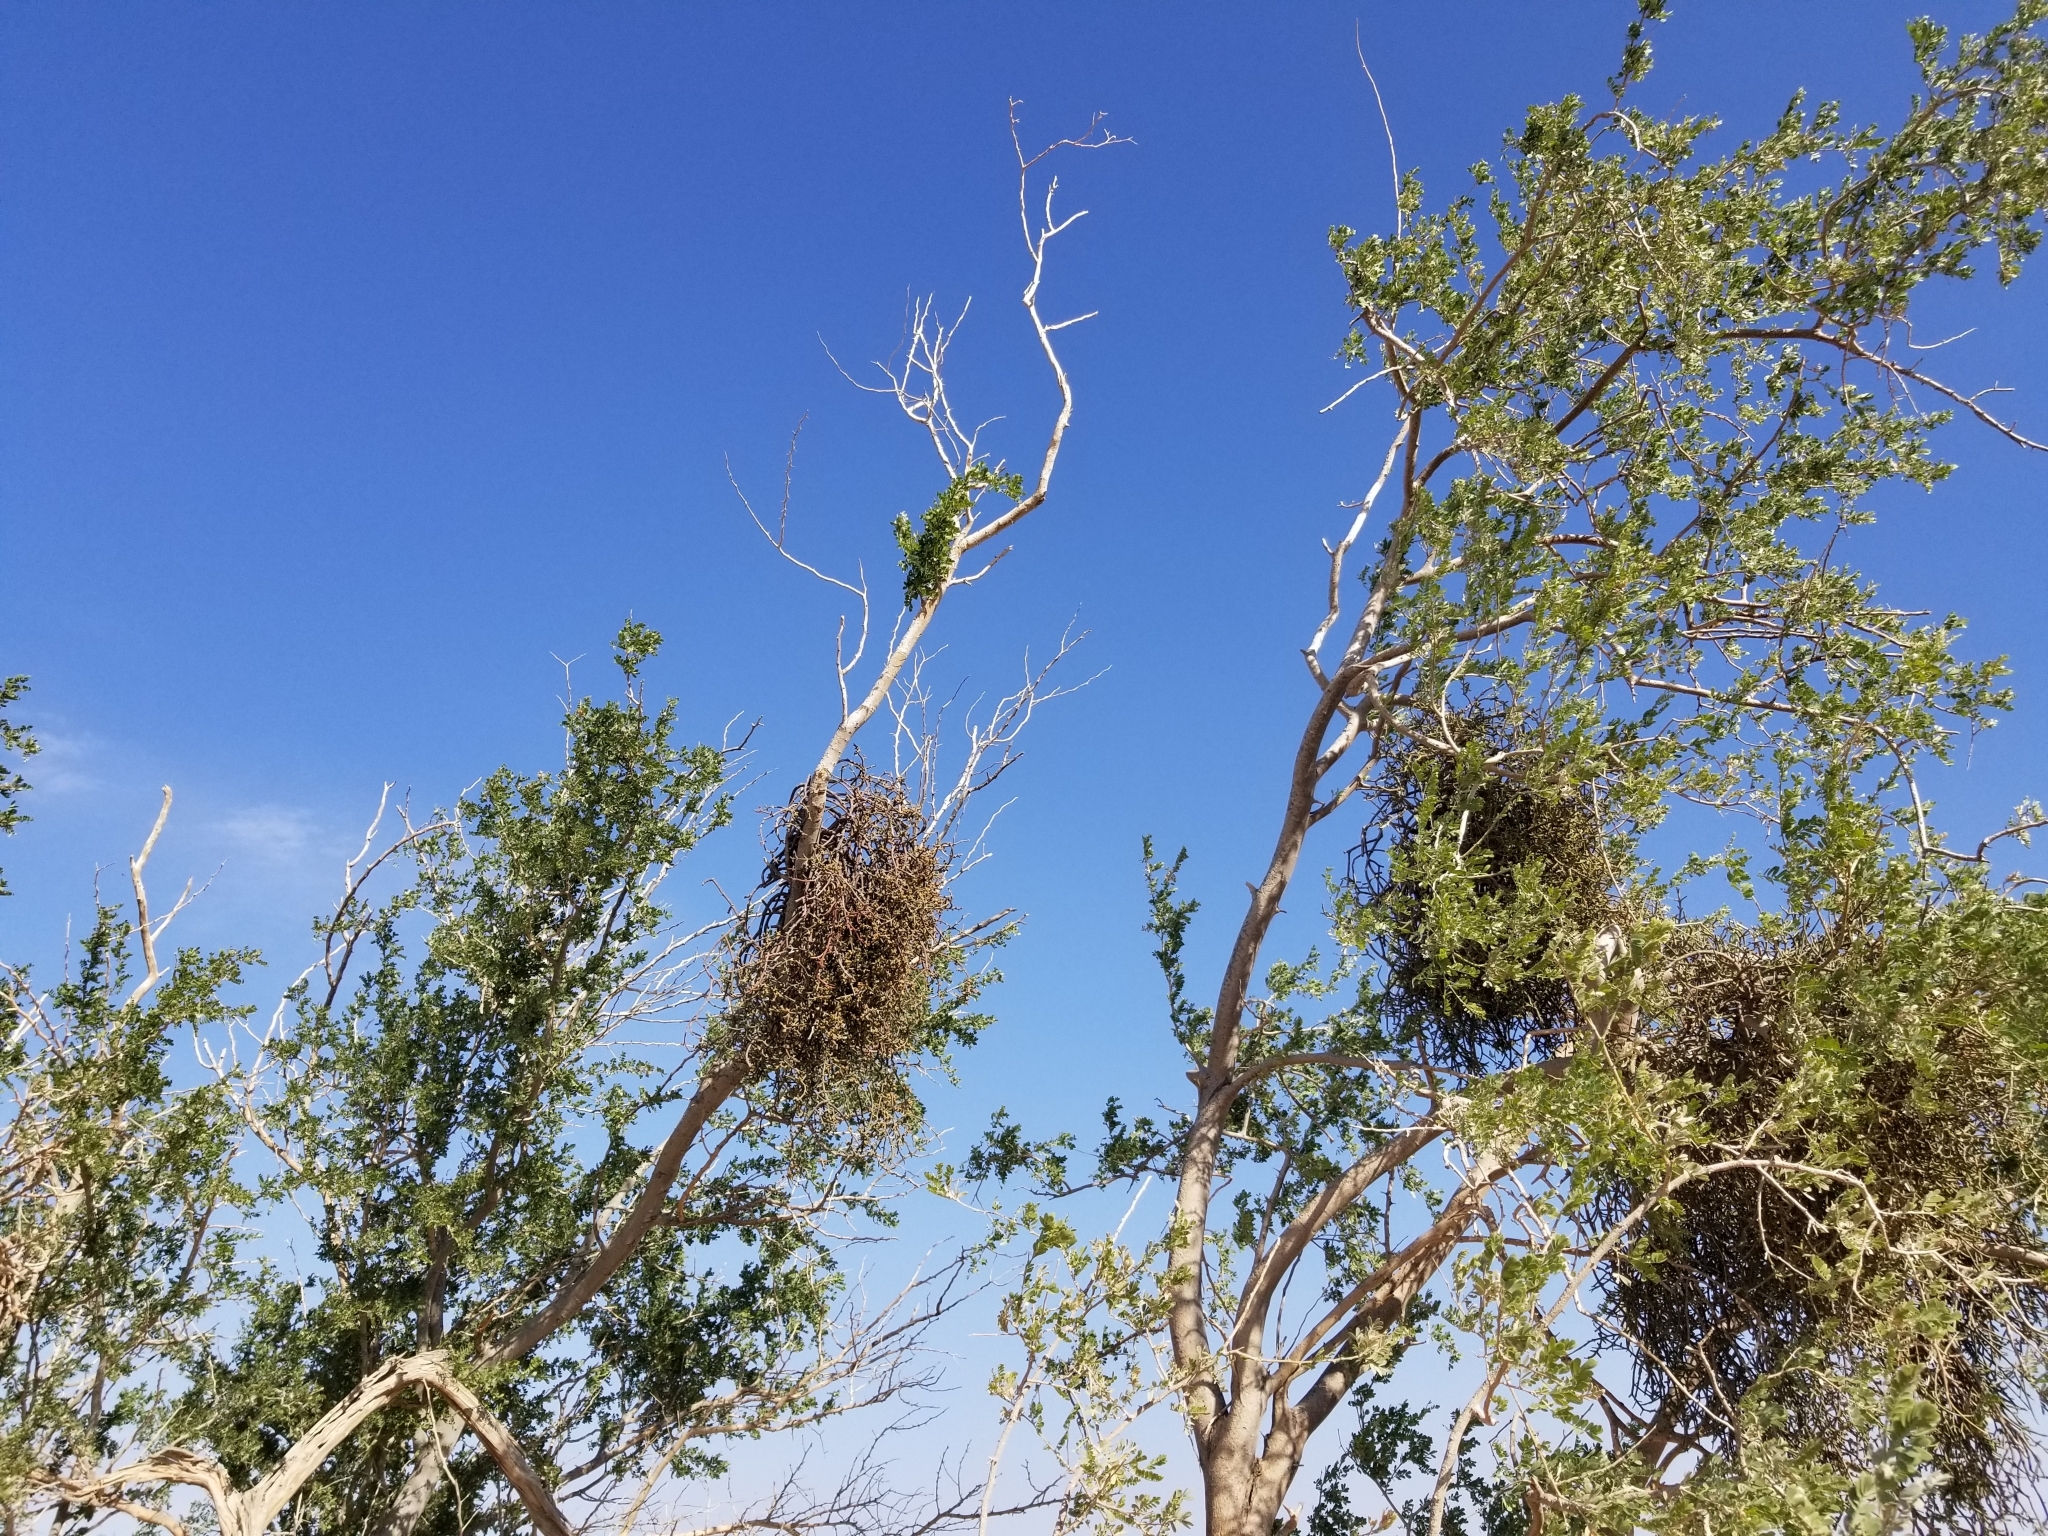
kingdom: Plantae
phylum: Tracheophyta
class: Magnoliopsida
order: Santalales
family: Viscaceae
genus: Phoradendron
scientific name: Phoradendron californicum
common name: Acacia mistletoe
